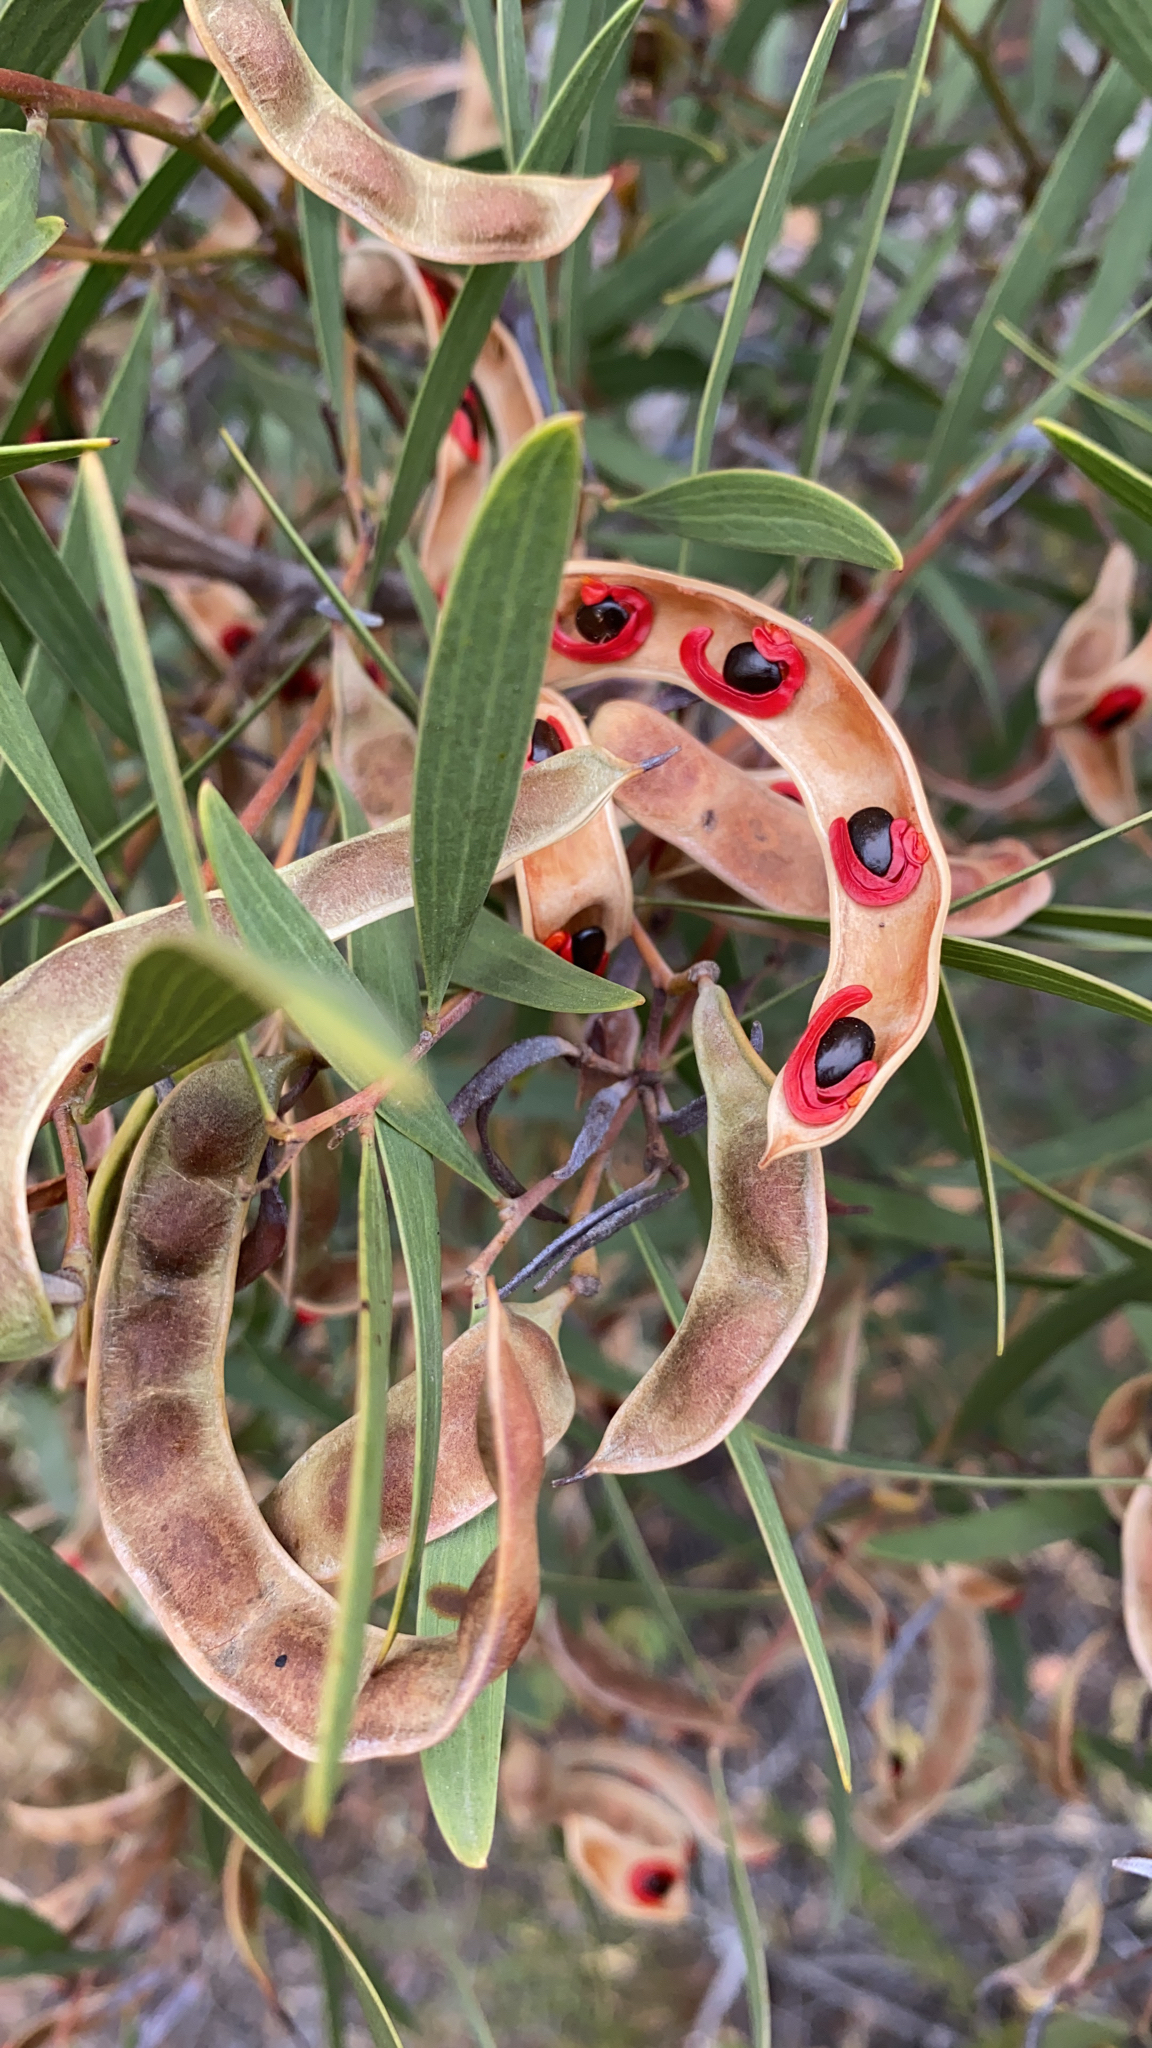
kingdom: Plantae
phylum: Tracheophyta
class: Magnoliopsida
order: Fabales
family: Fabaceae
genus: Acacia
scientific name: Acacia melanoxylon
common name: Blackwood
